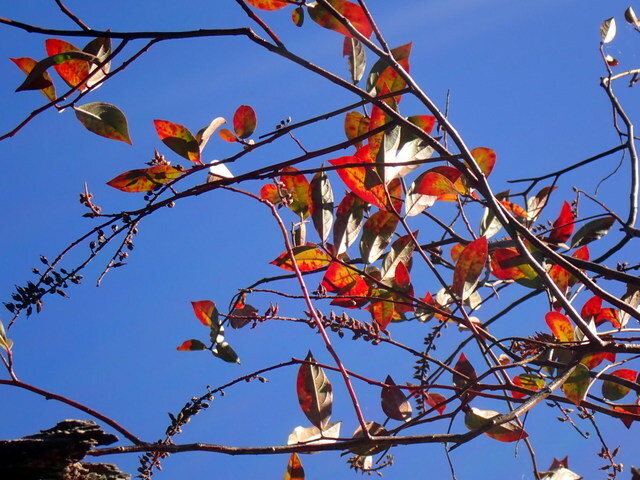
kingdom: Plantae
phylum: Tracheophyta
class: Magnoliopsida
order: Saxifragales
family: Iteaceae
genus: Itea
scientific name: Itea virginica
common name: Sweetspire
